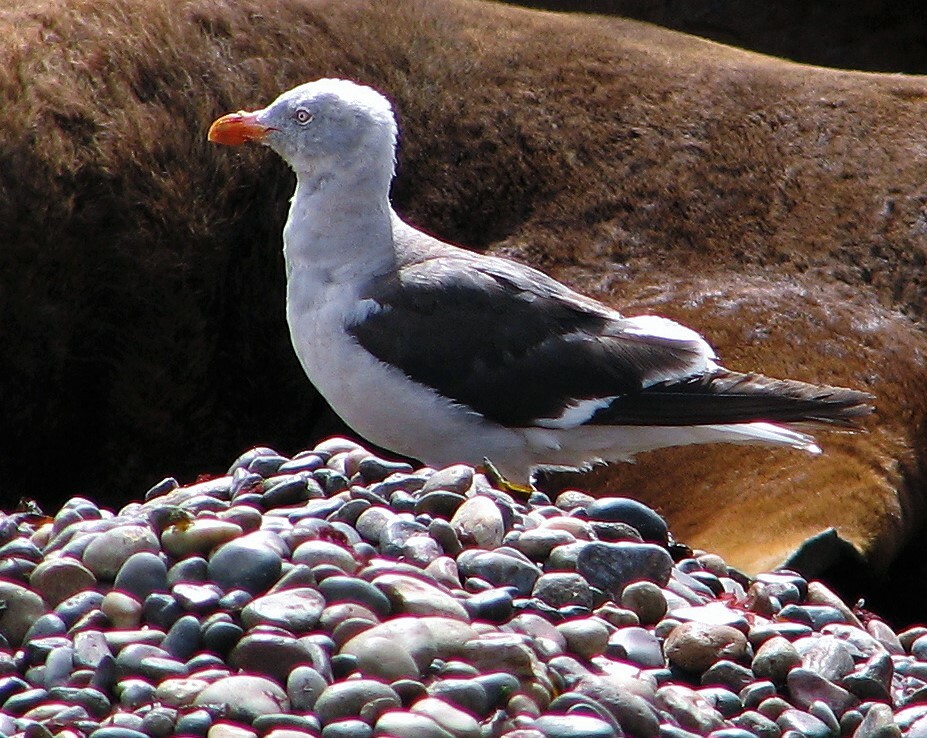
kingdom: Animalia
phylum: Chordata
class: Aves
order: Charadriiformes
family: Laridae
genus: Leucophaeus
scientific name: Leucophaeus scoresbii
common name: Dolphin gull
